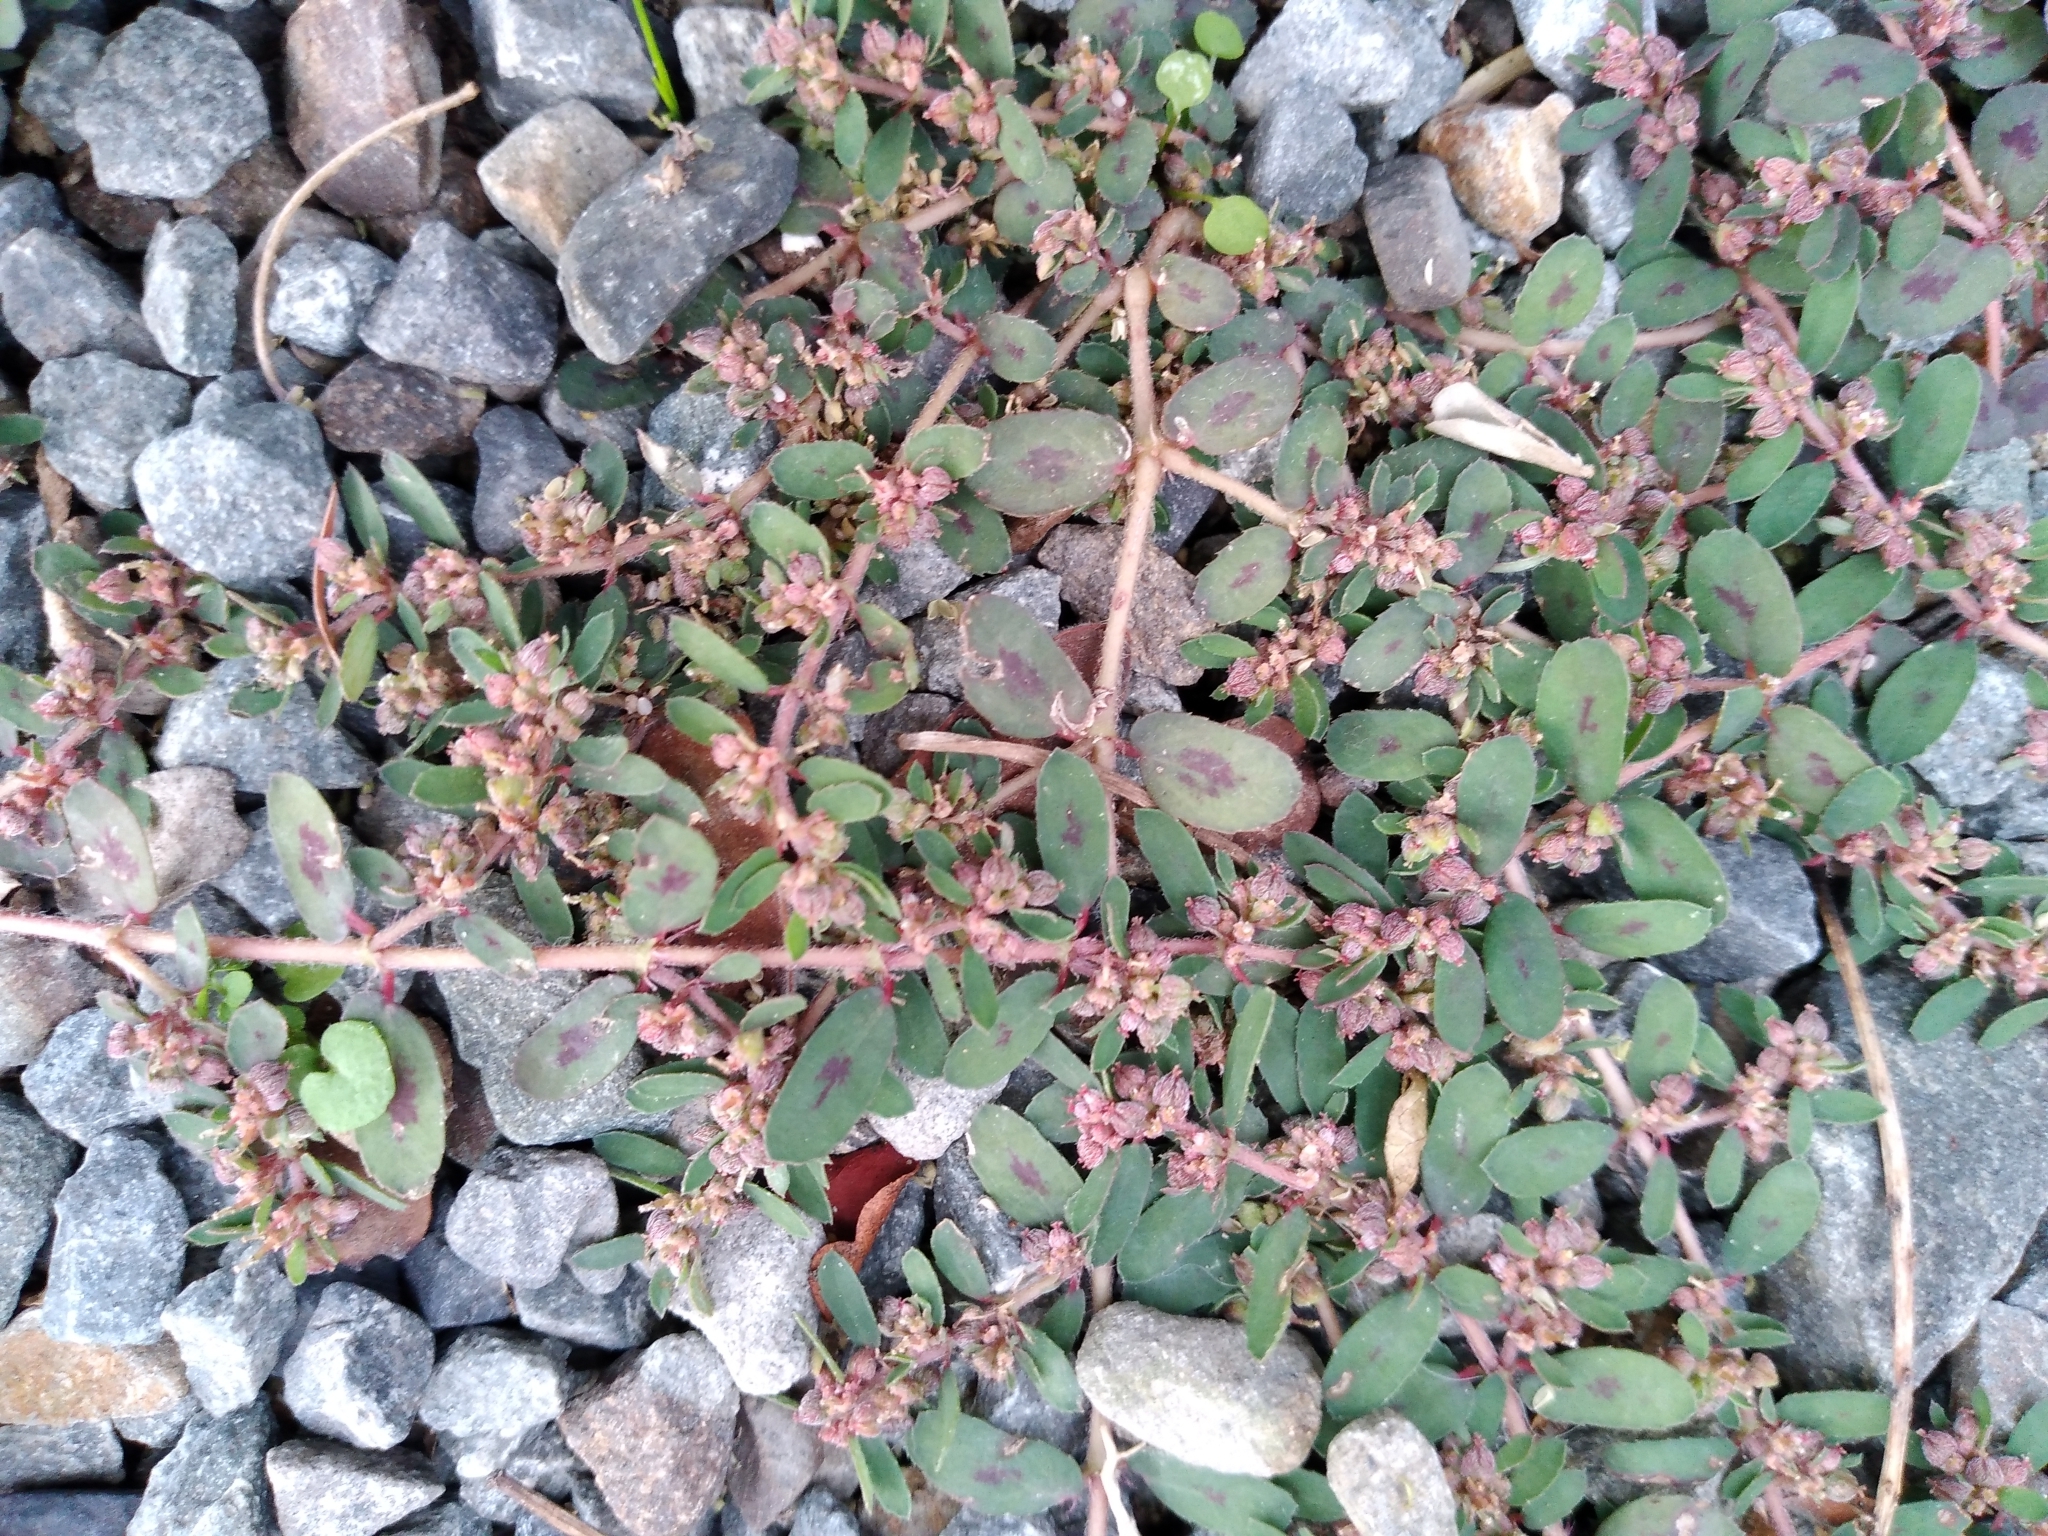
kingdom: Plantae
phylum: Tracheophyta
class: Magnoliopsida
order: Malpighiales
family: Euphorbiaceae
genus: Euphorbia
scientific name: Euphorbia maculata
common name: Spotted spurge
